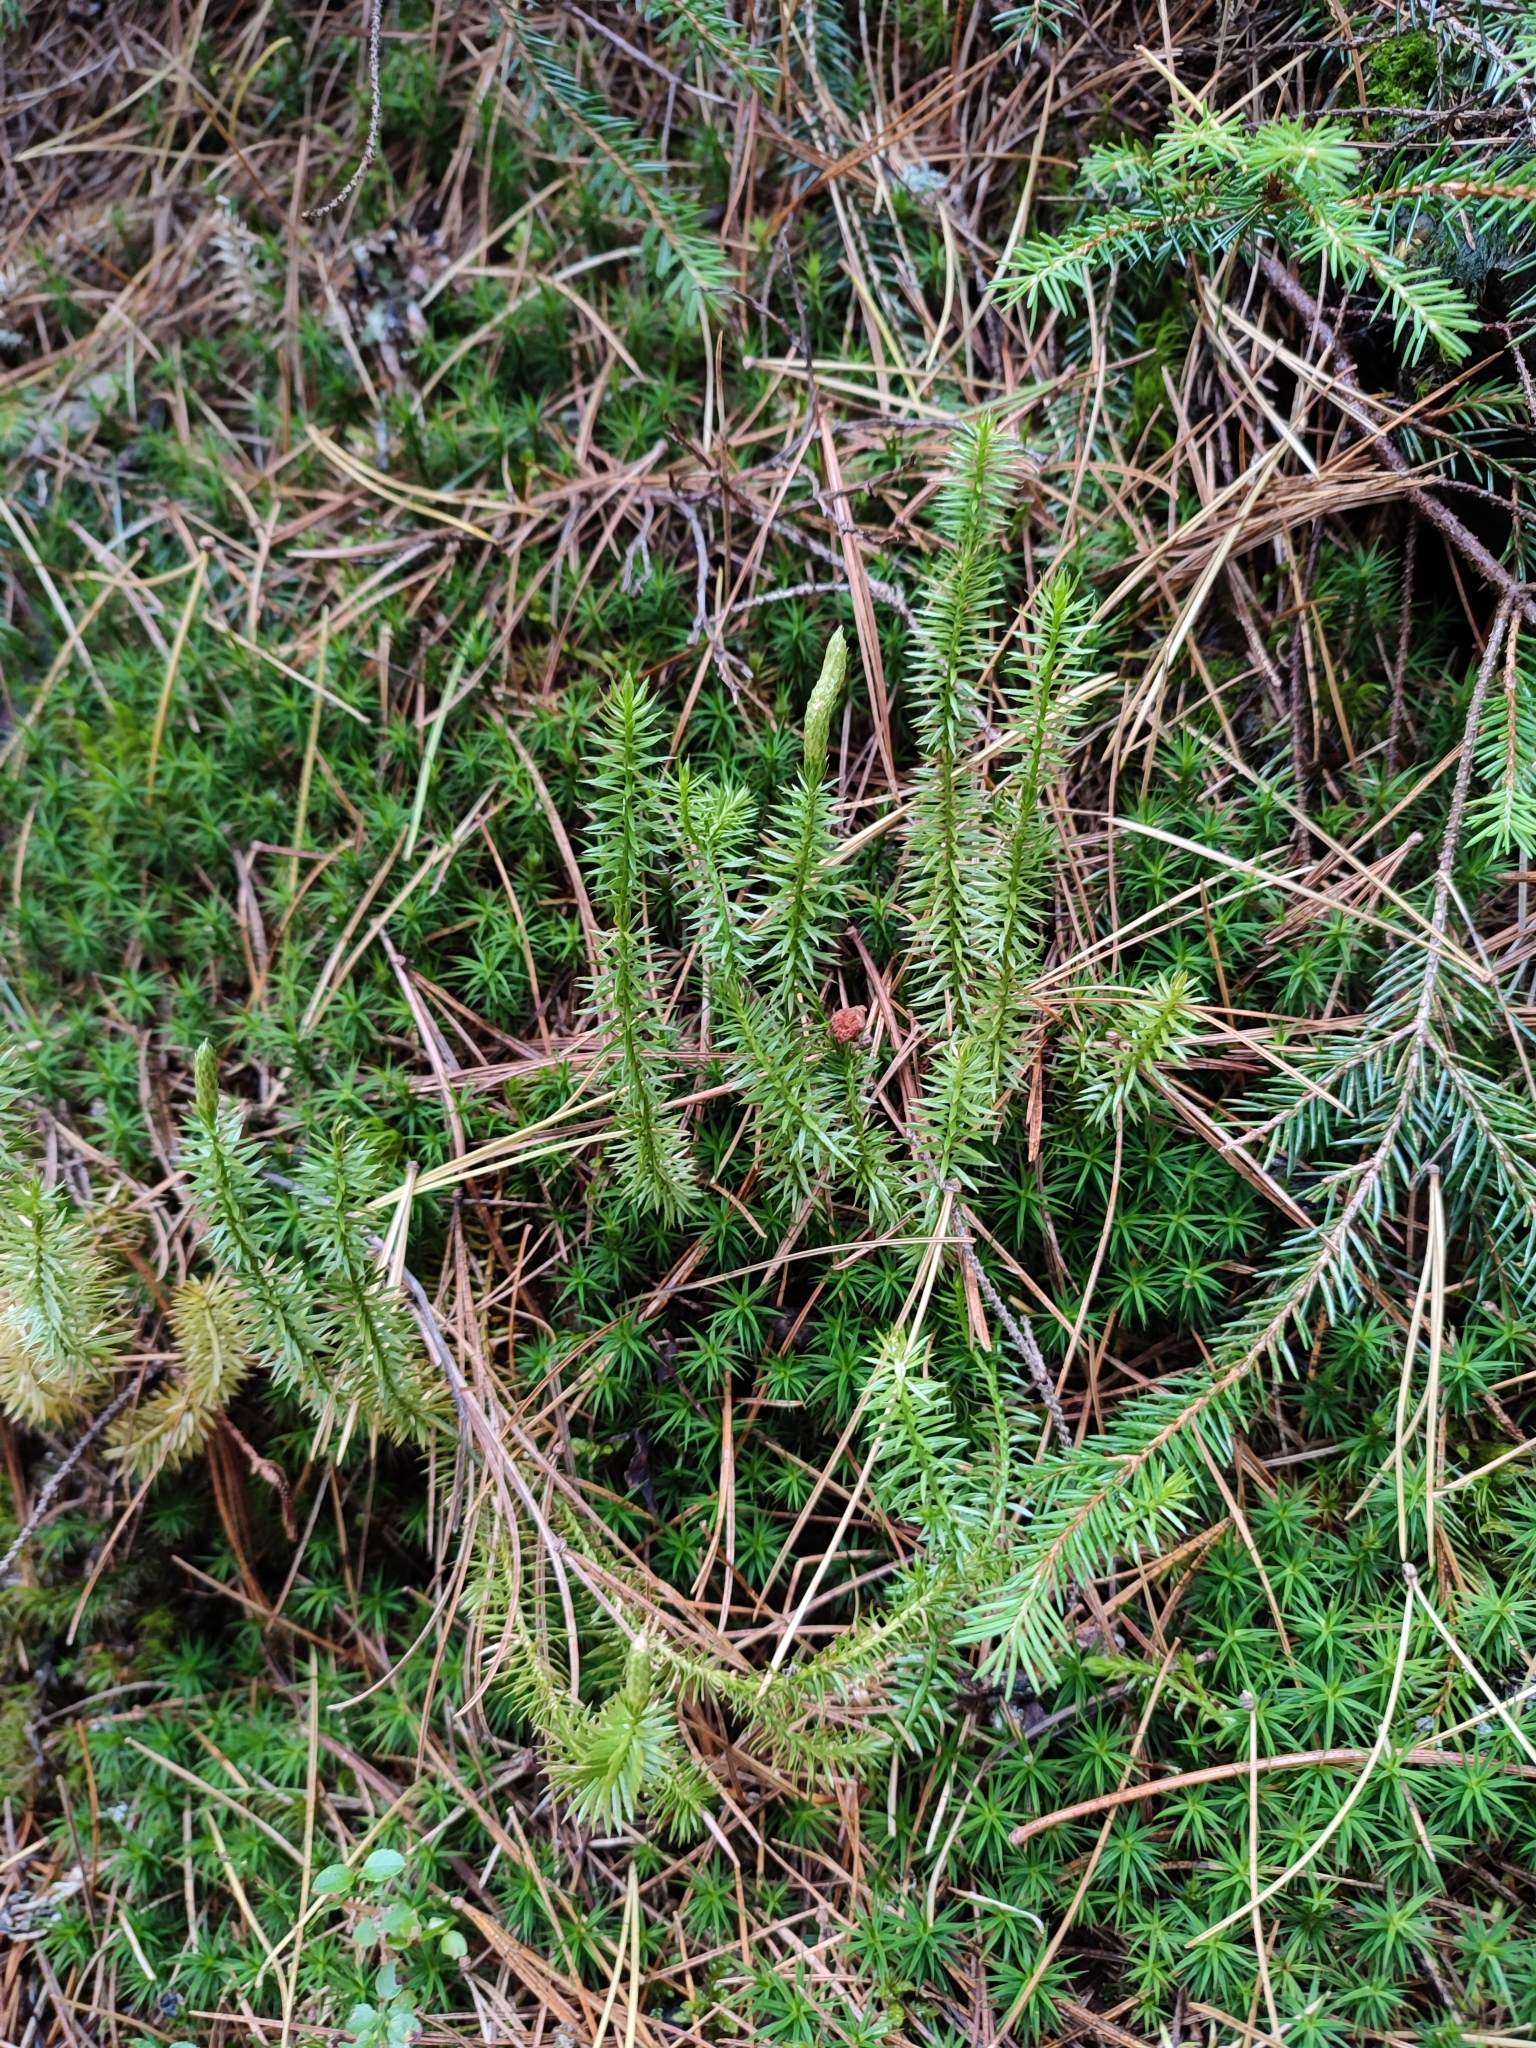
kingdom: Plantae
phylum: Tracheophyta
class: Lycopodiopsida
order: Lycopodiales
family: Lycopodiaceae
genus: Spinulum
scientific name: Spinulum annotinum
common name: Interrupted club-moss
